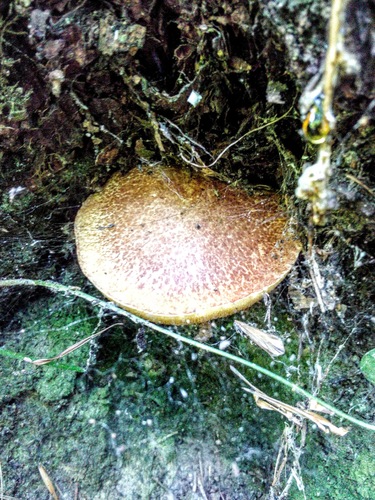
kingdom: Fungi
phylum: Basidiomycota
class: Agaricomycetes
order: Boletales
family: Suillaceae
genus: Suillus
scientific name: Suillus
